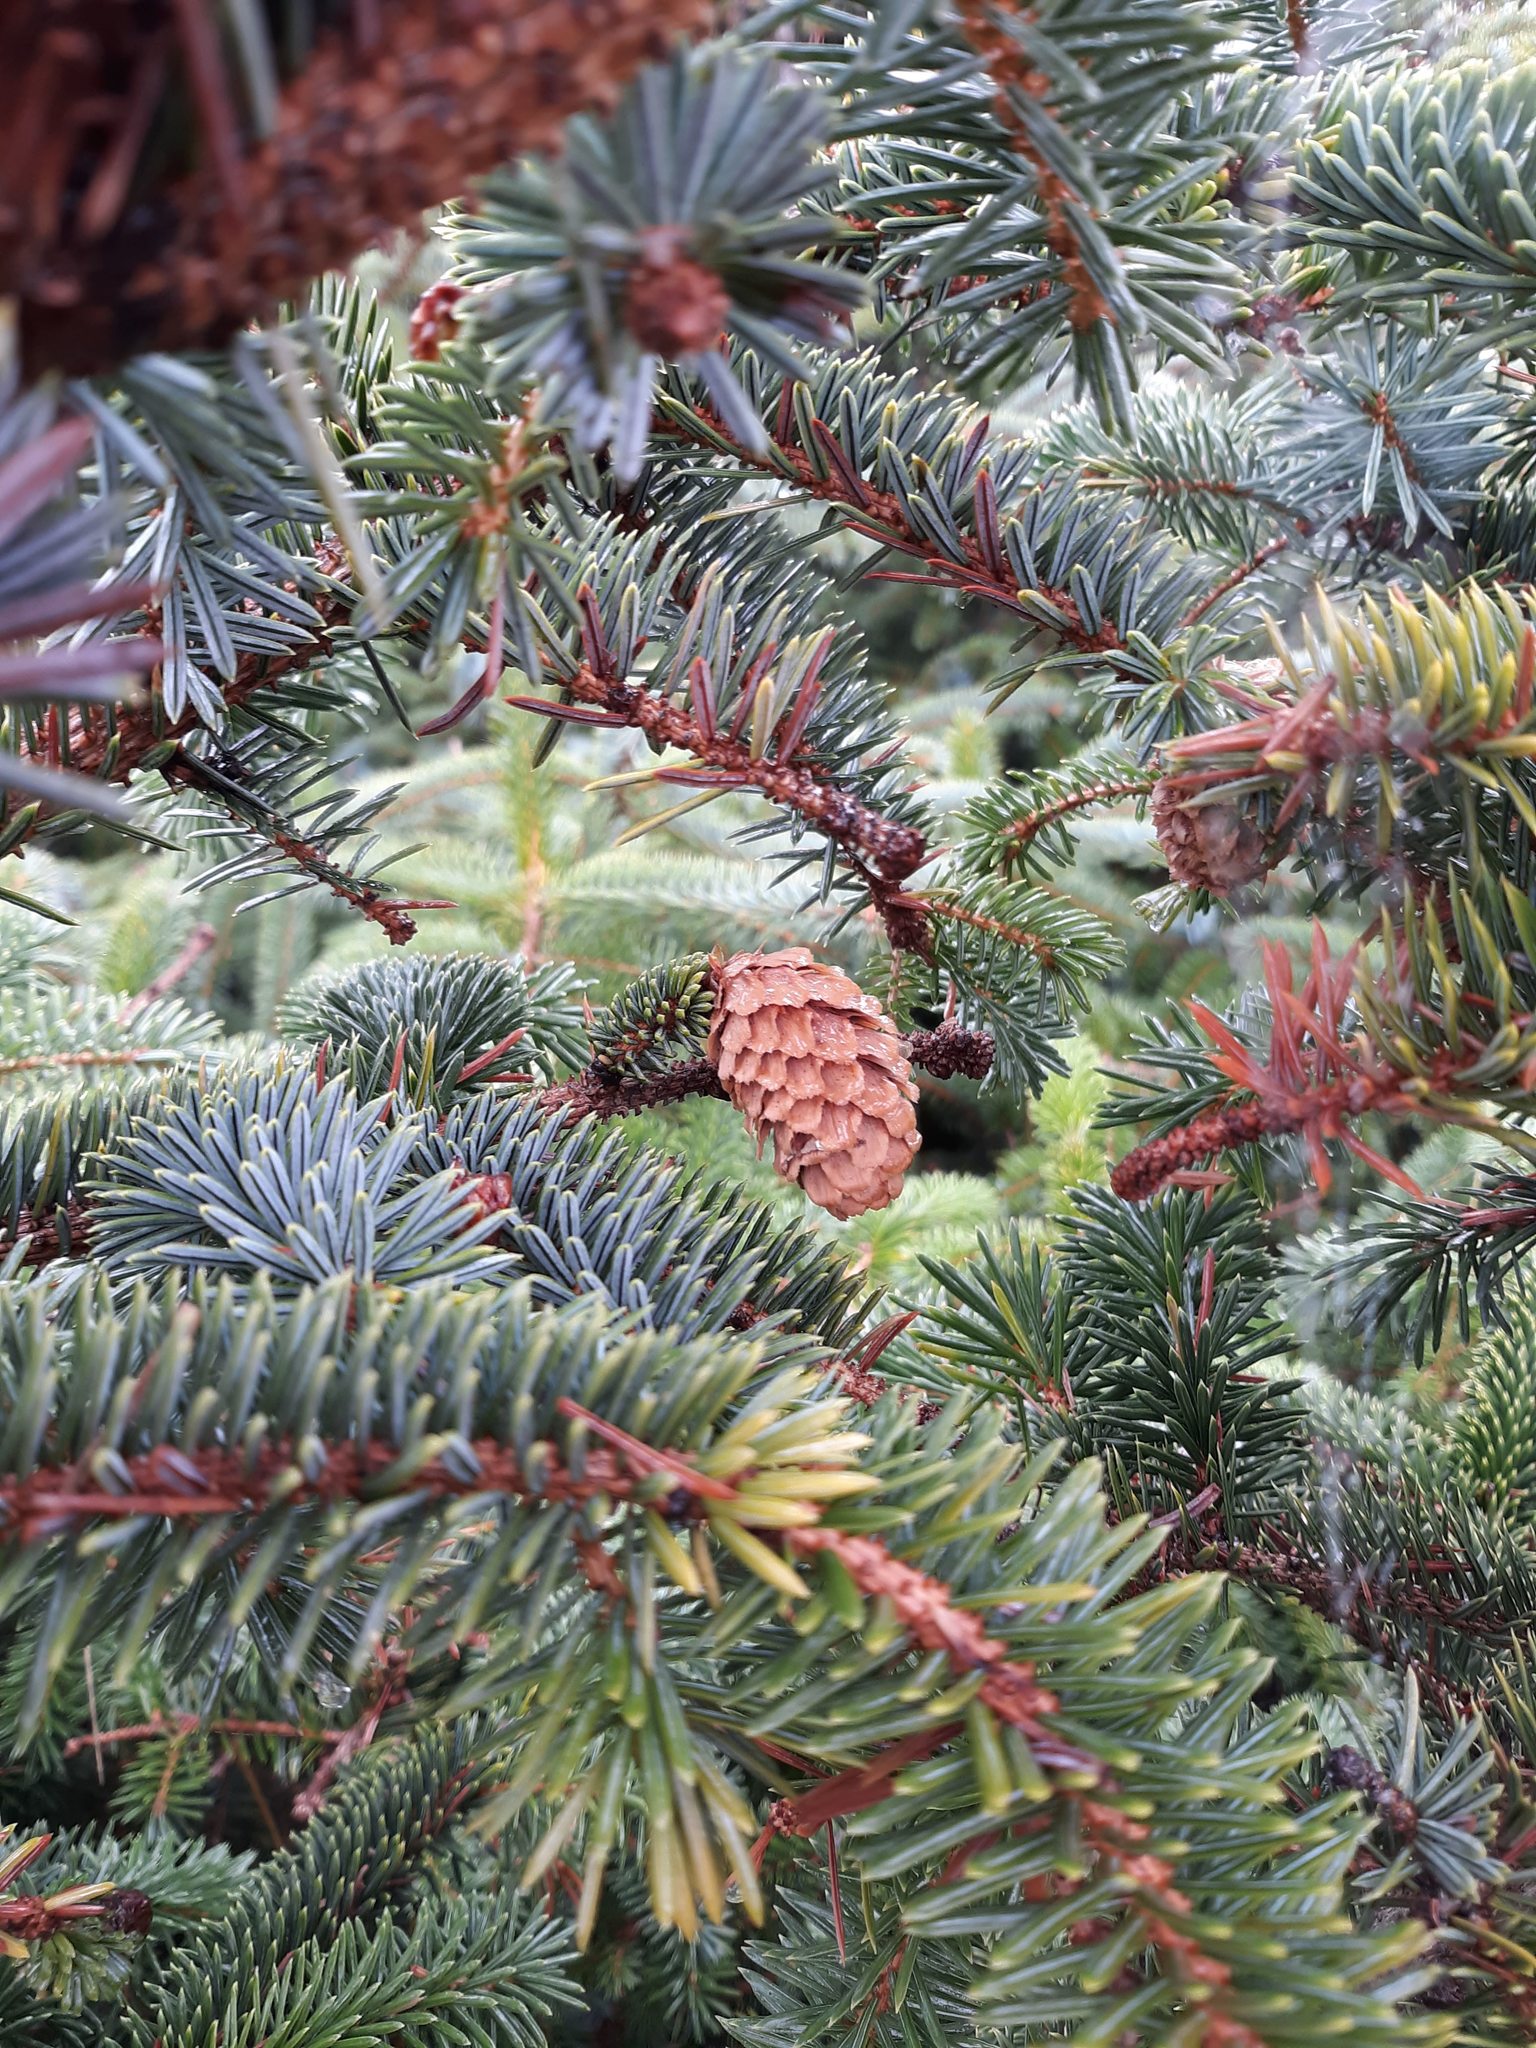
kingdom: Plantae
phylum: Tracheophyta
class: Pinopsida
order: Pinales
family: Pinaceae
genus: Picea
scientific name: Picea sitchensis
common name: Sitka spruce
